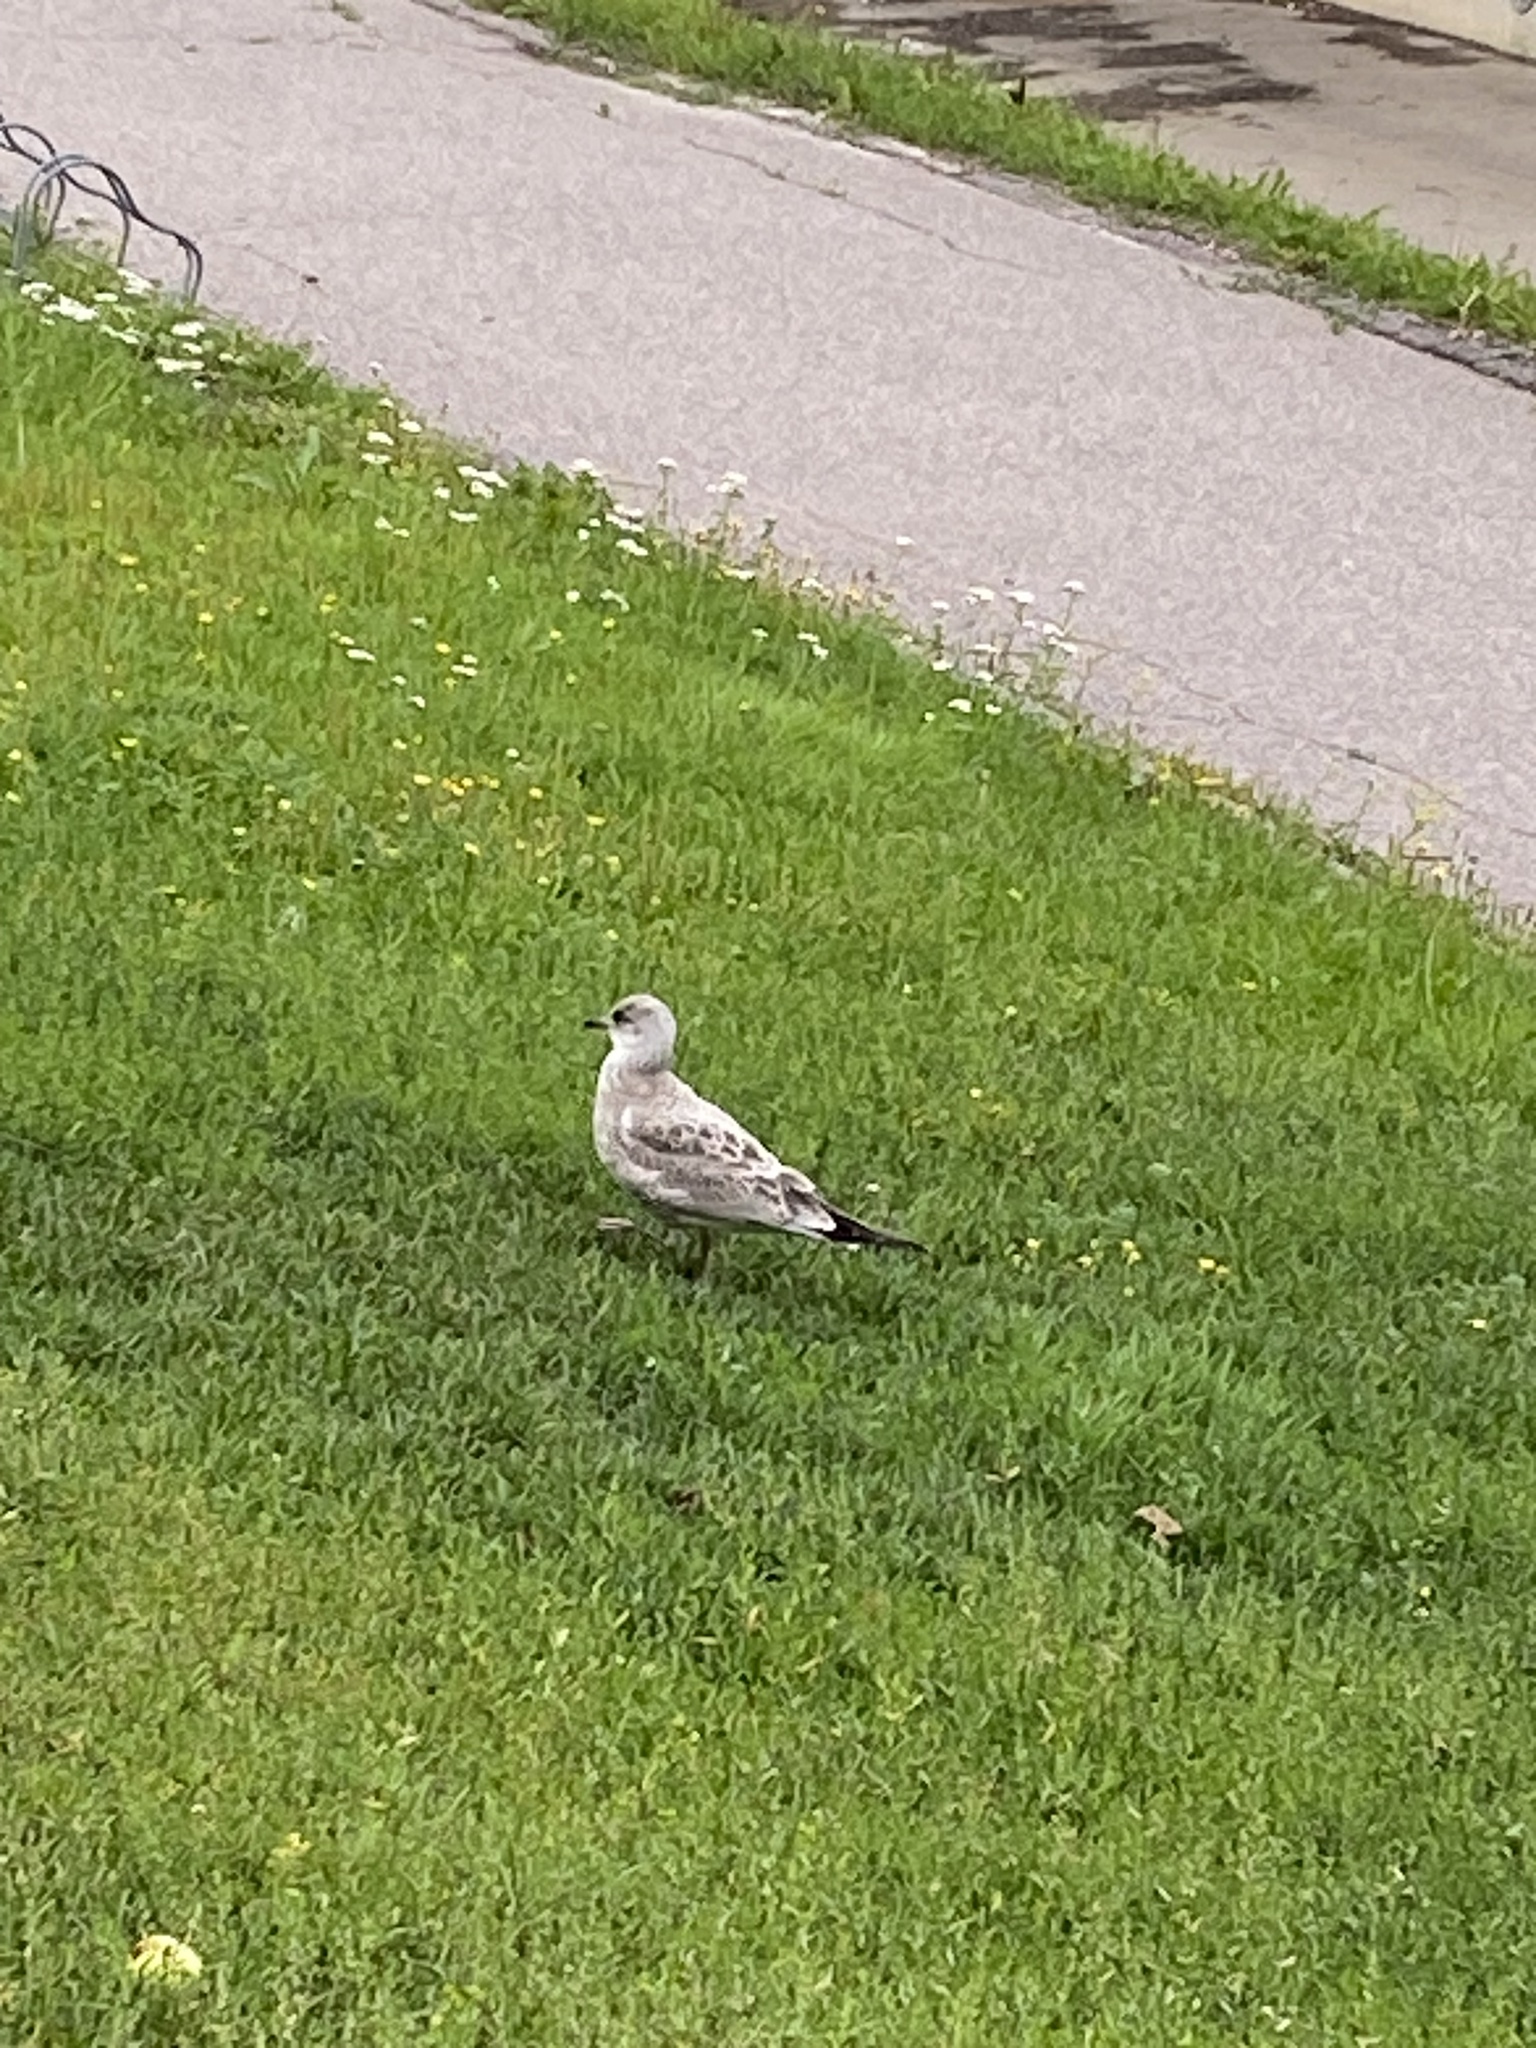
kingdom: Animalia
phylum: Chordata
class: Aves
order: Charadriiformes
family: Laridae
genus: Larus
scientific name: Larus canus
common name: Mew gull
